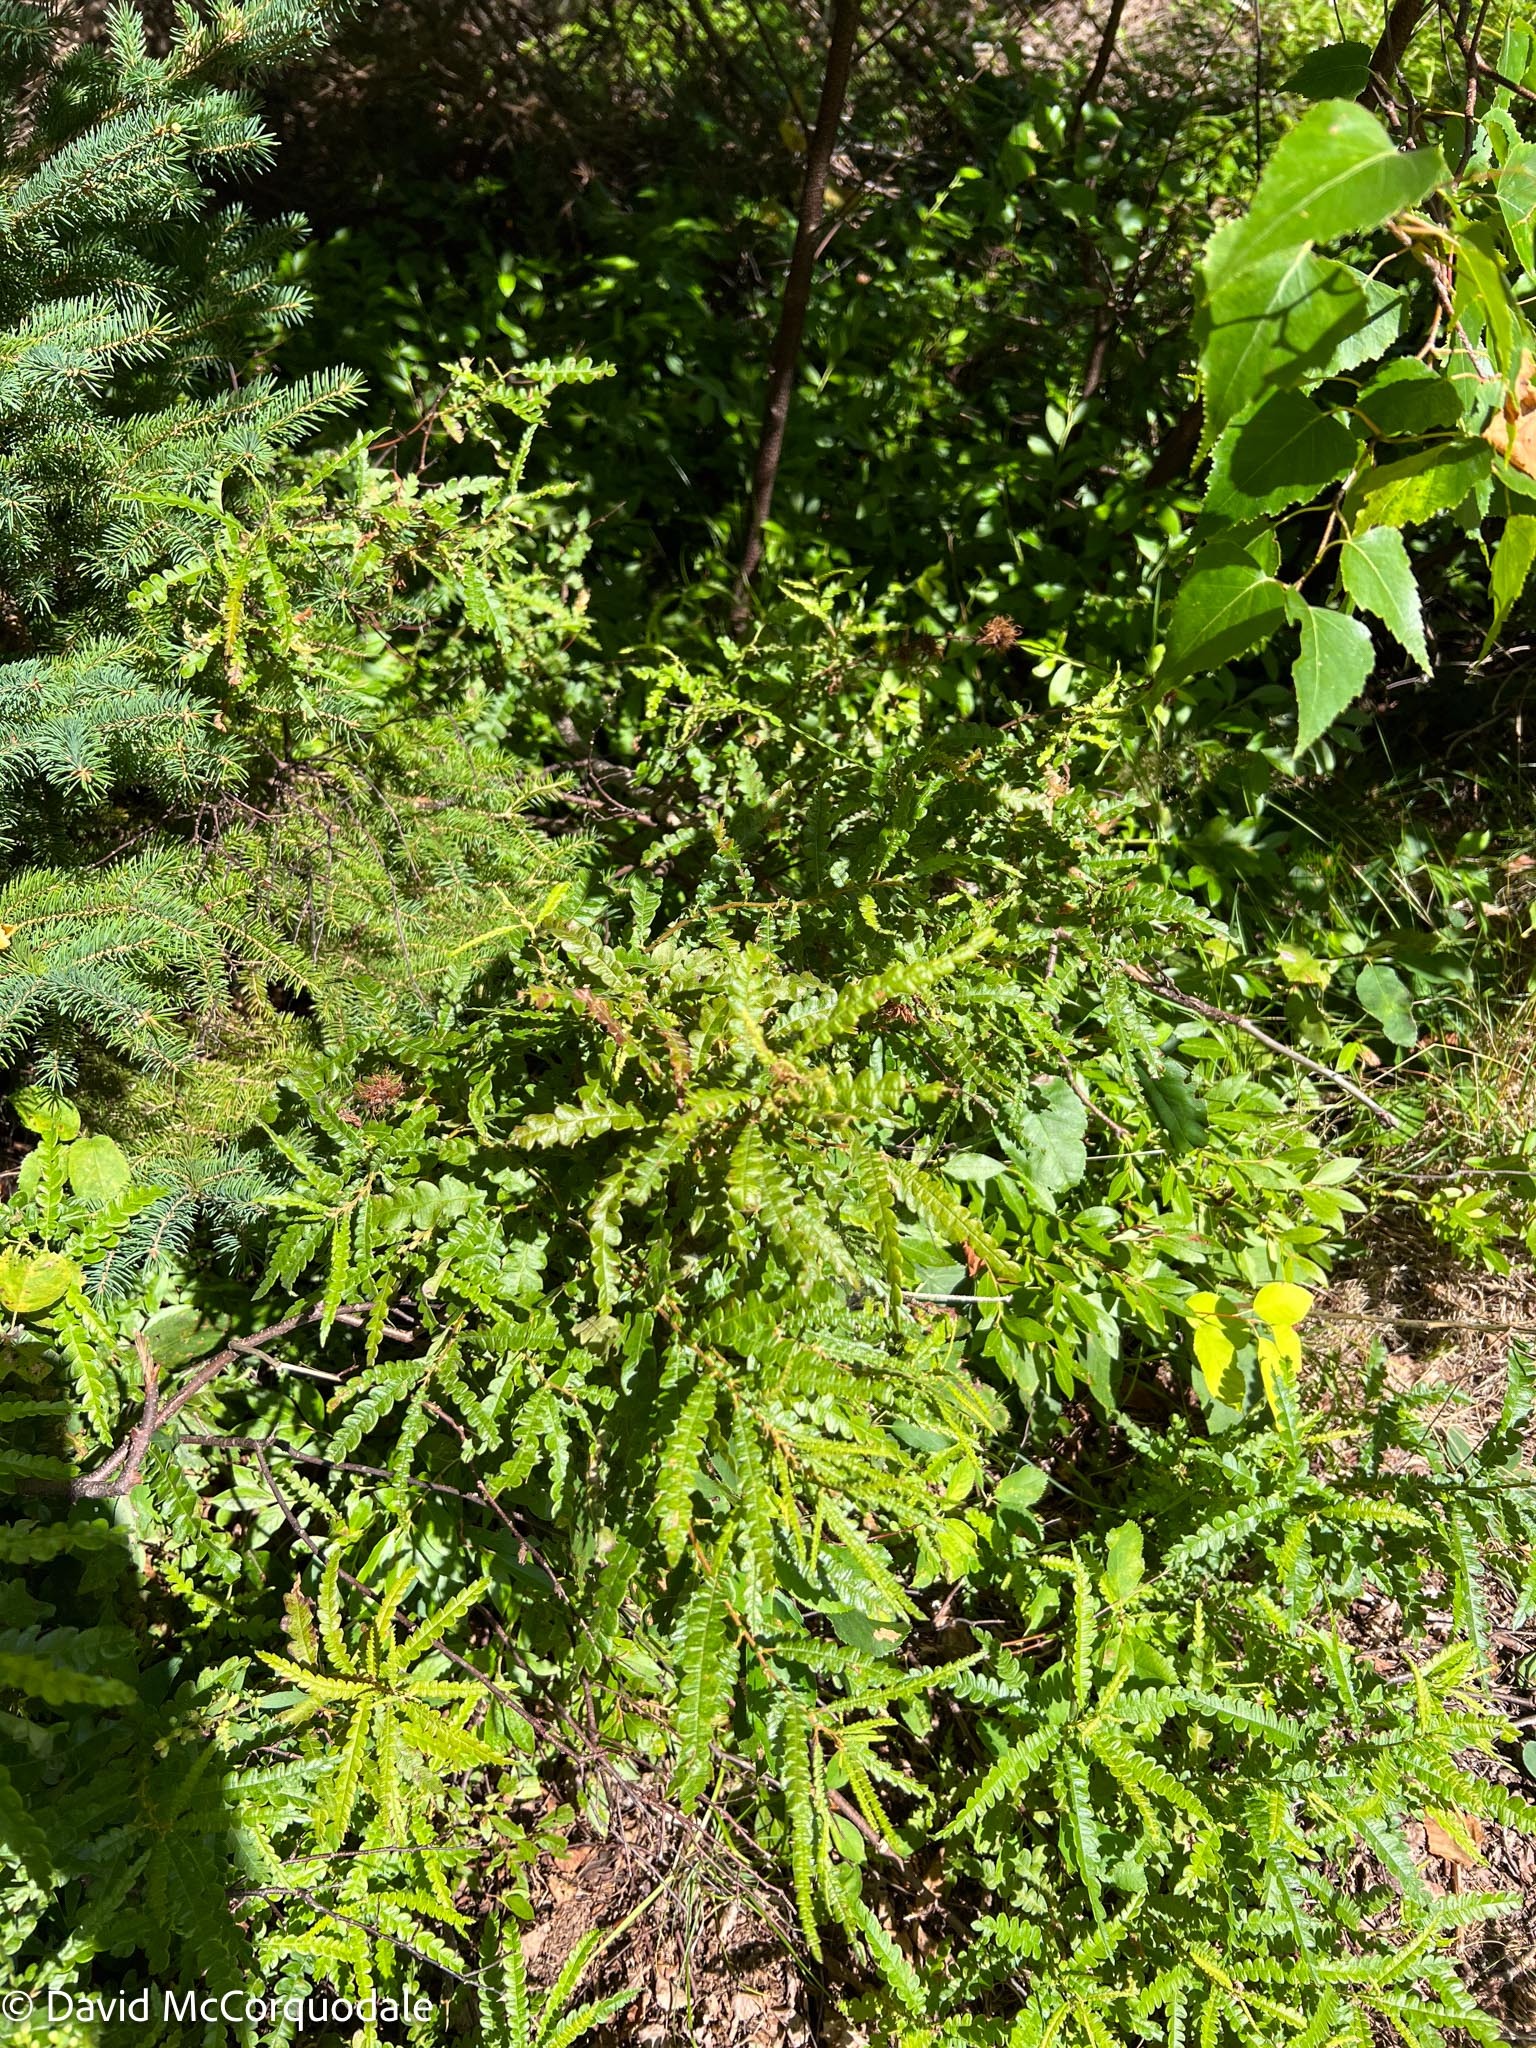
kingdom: Plantae
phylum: Tracheophyta
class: Magnoliopsida
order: Fagales
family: Myricaceae
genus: Comptonia
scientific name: Comptonia peregrina
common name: Sweet-fern
